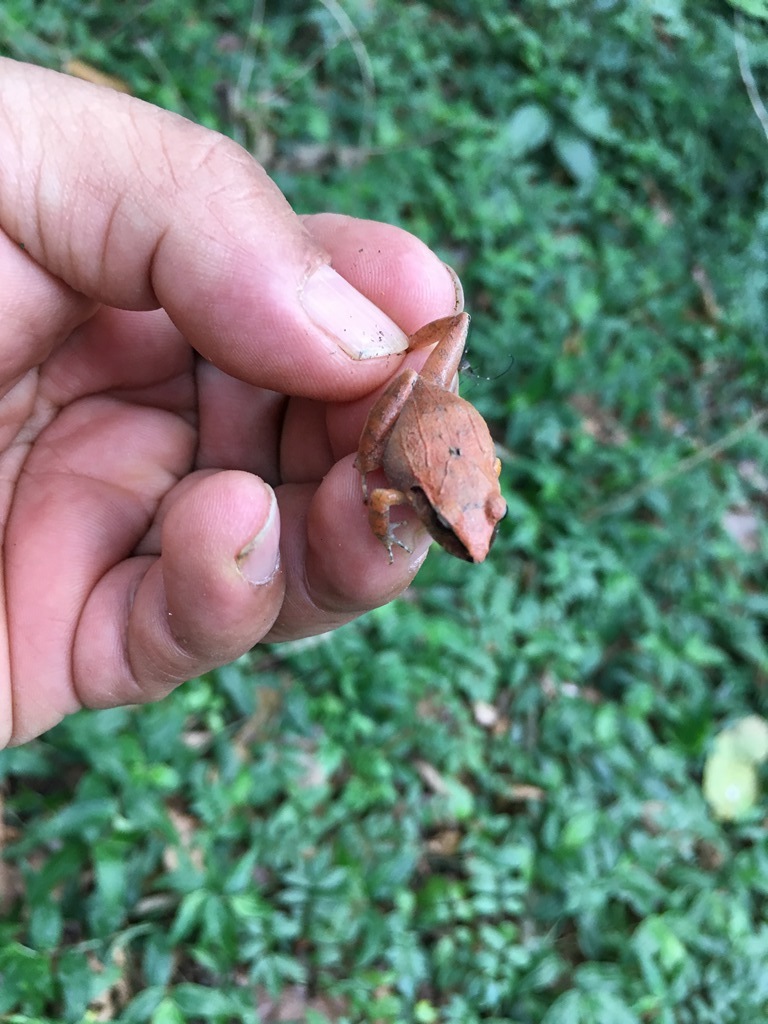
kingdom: Animalia
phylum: Chordata
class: Amphibia
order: Anura
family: Craugastoridae
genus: Craugastor
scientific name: Craugastor rhodopis
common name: Polymorphic robber frog
